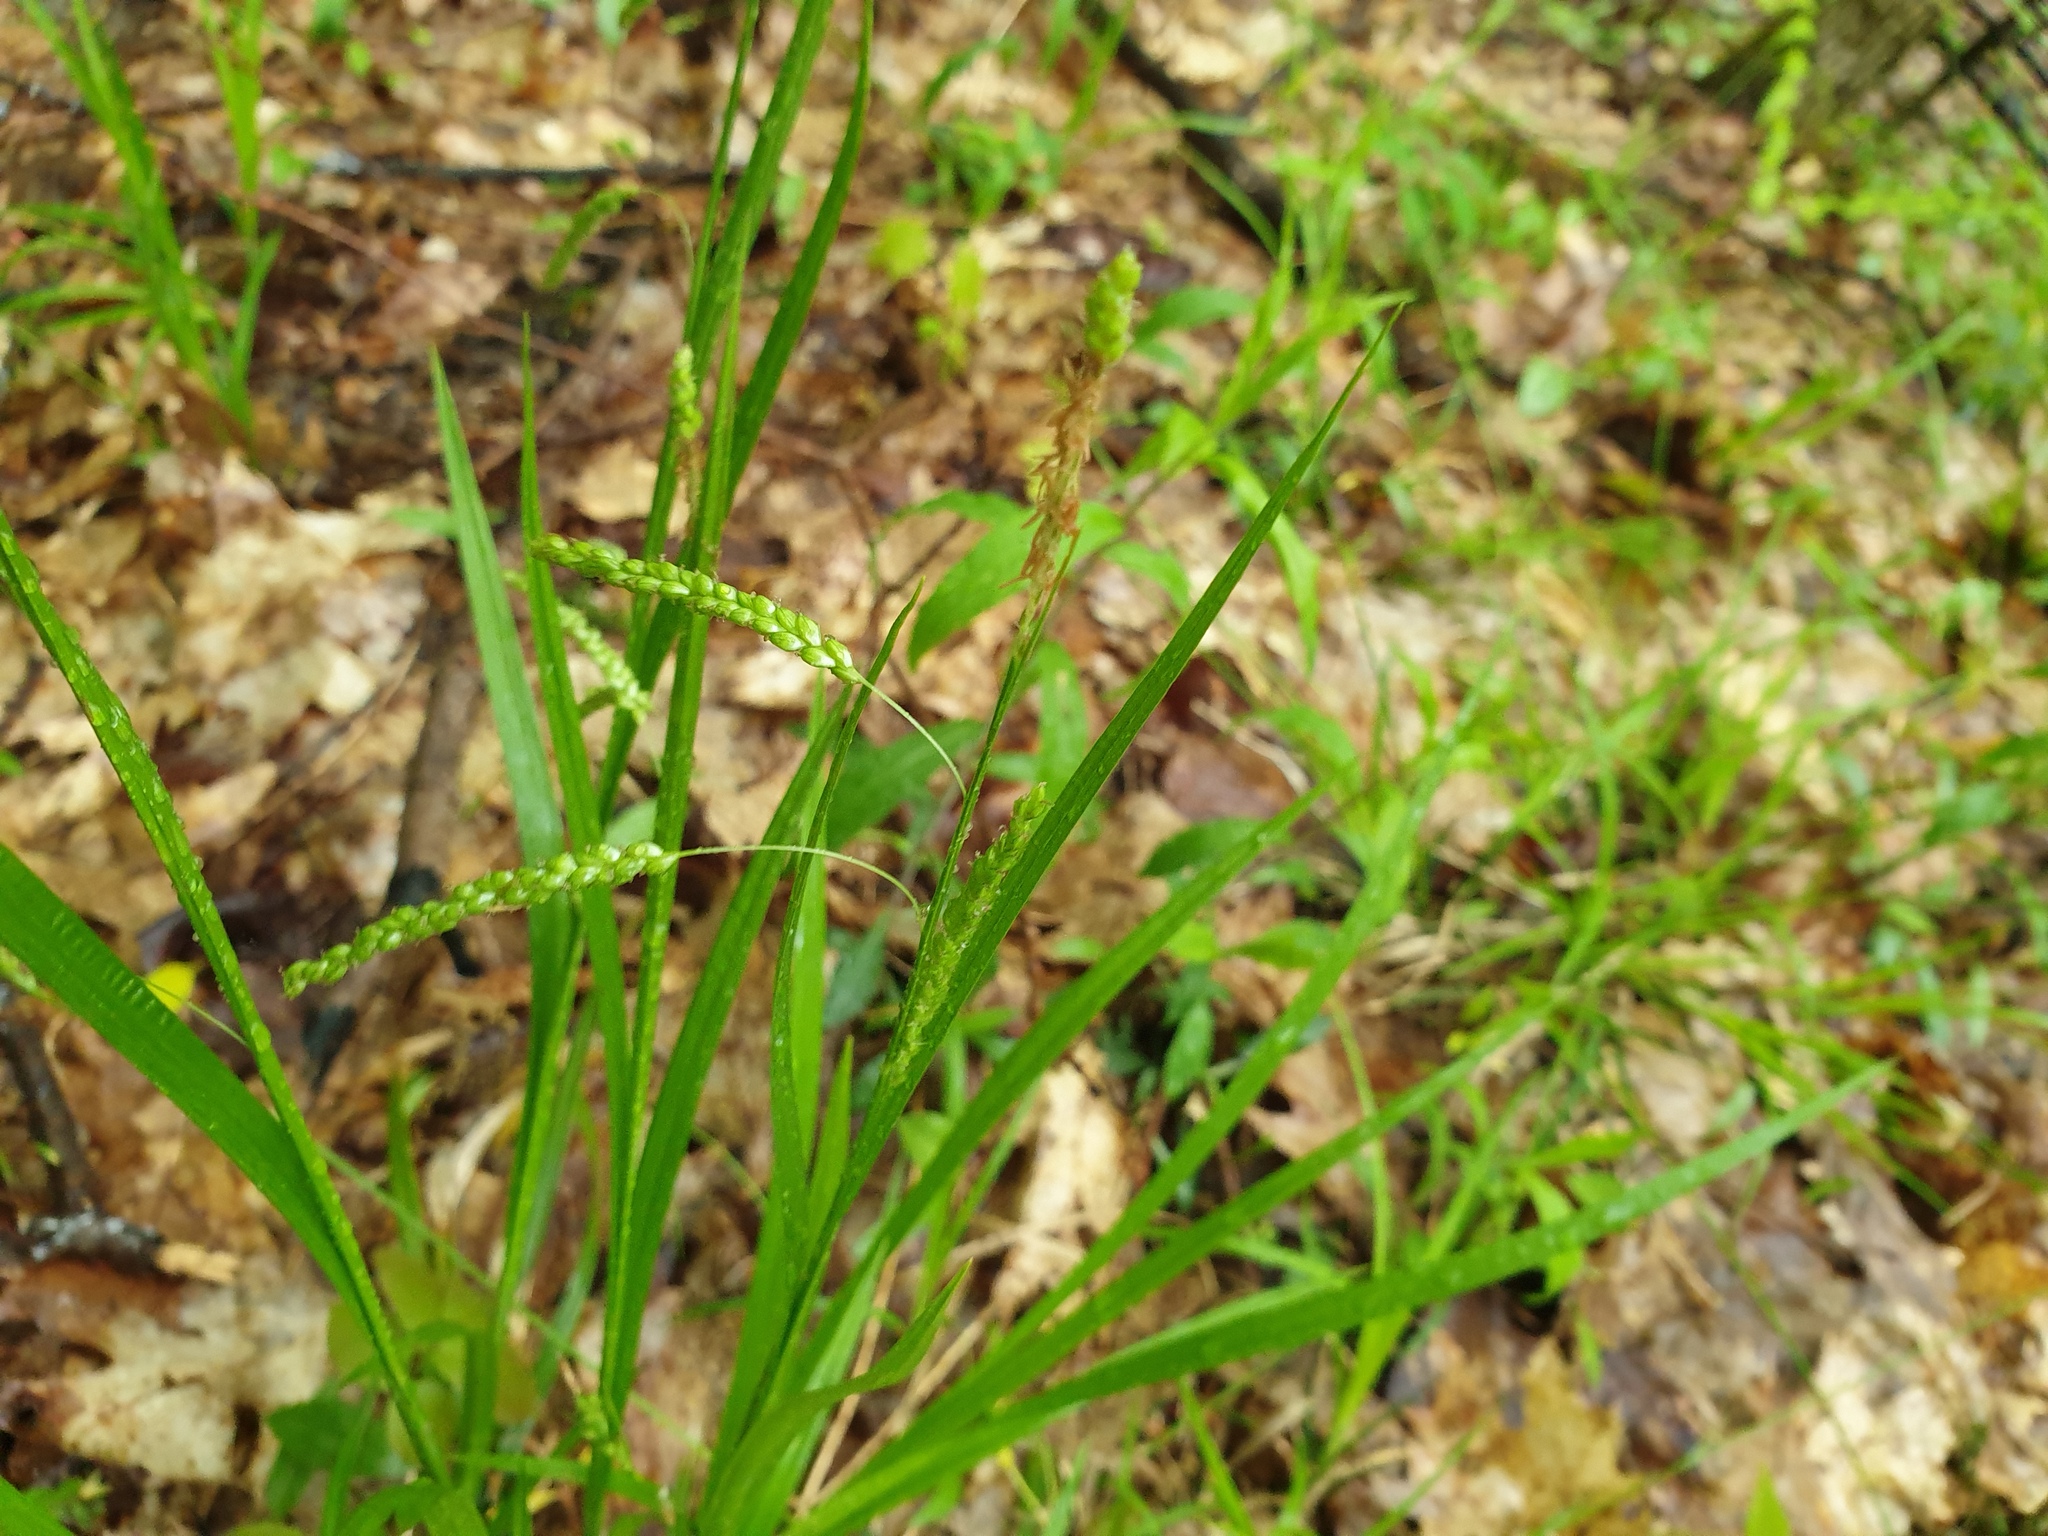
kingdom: Plantae
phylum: Tracheophyta
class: Liliopsida
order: Poales
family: Cyperaceae
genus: Carex
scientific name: Carex gracillima
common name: Graceful sedge
